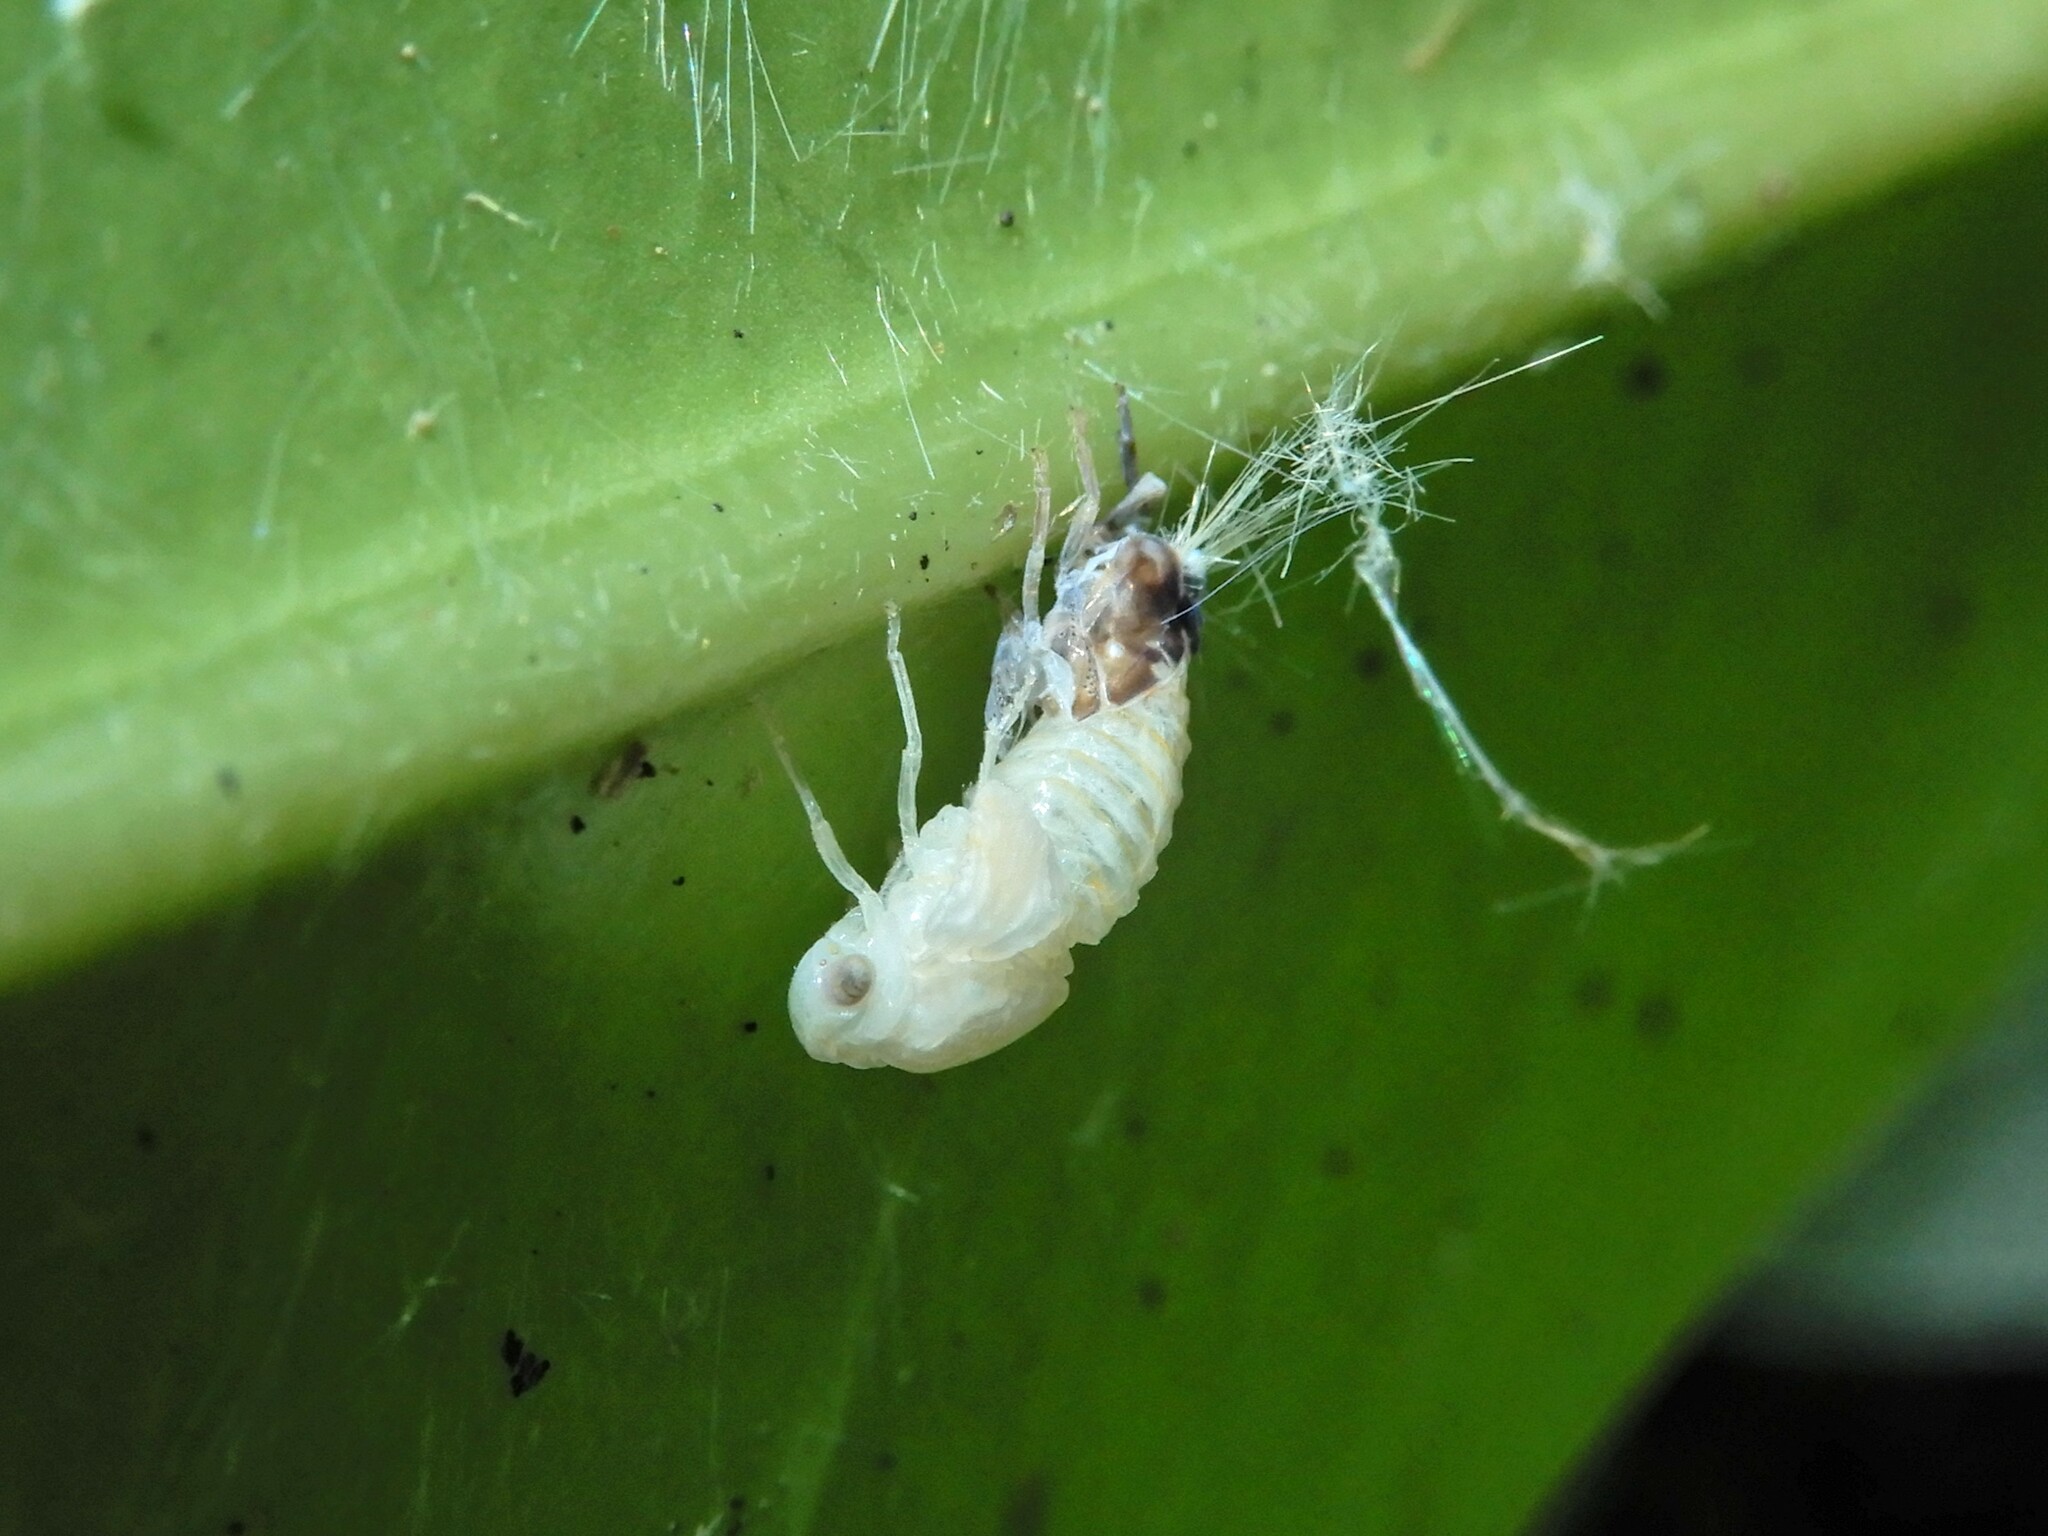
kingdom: Animalia
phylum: Arthropoda
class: Insecta
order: Hemiptera
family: Ricaniidae
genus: Scolypopa
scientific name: Scolypopa australis
